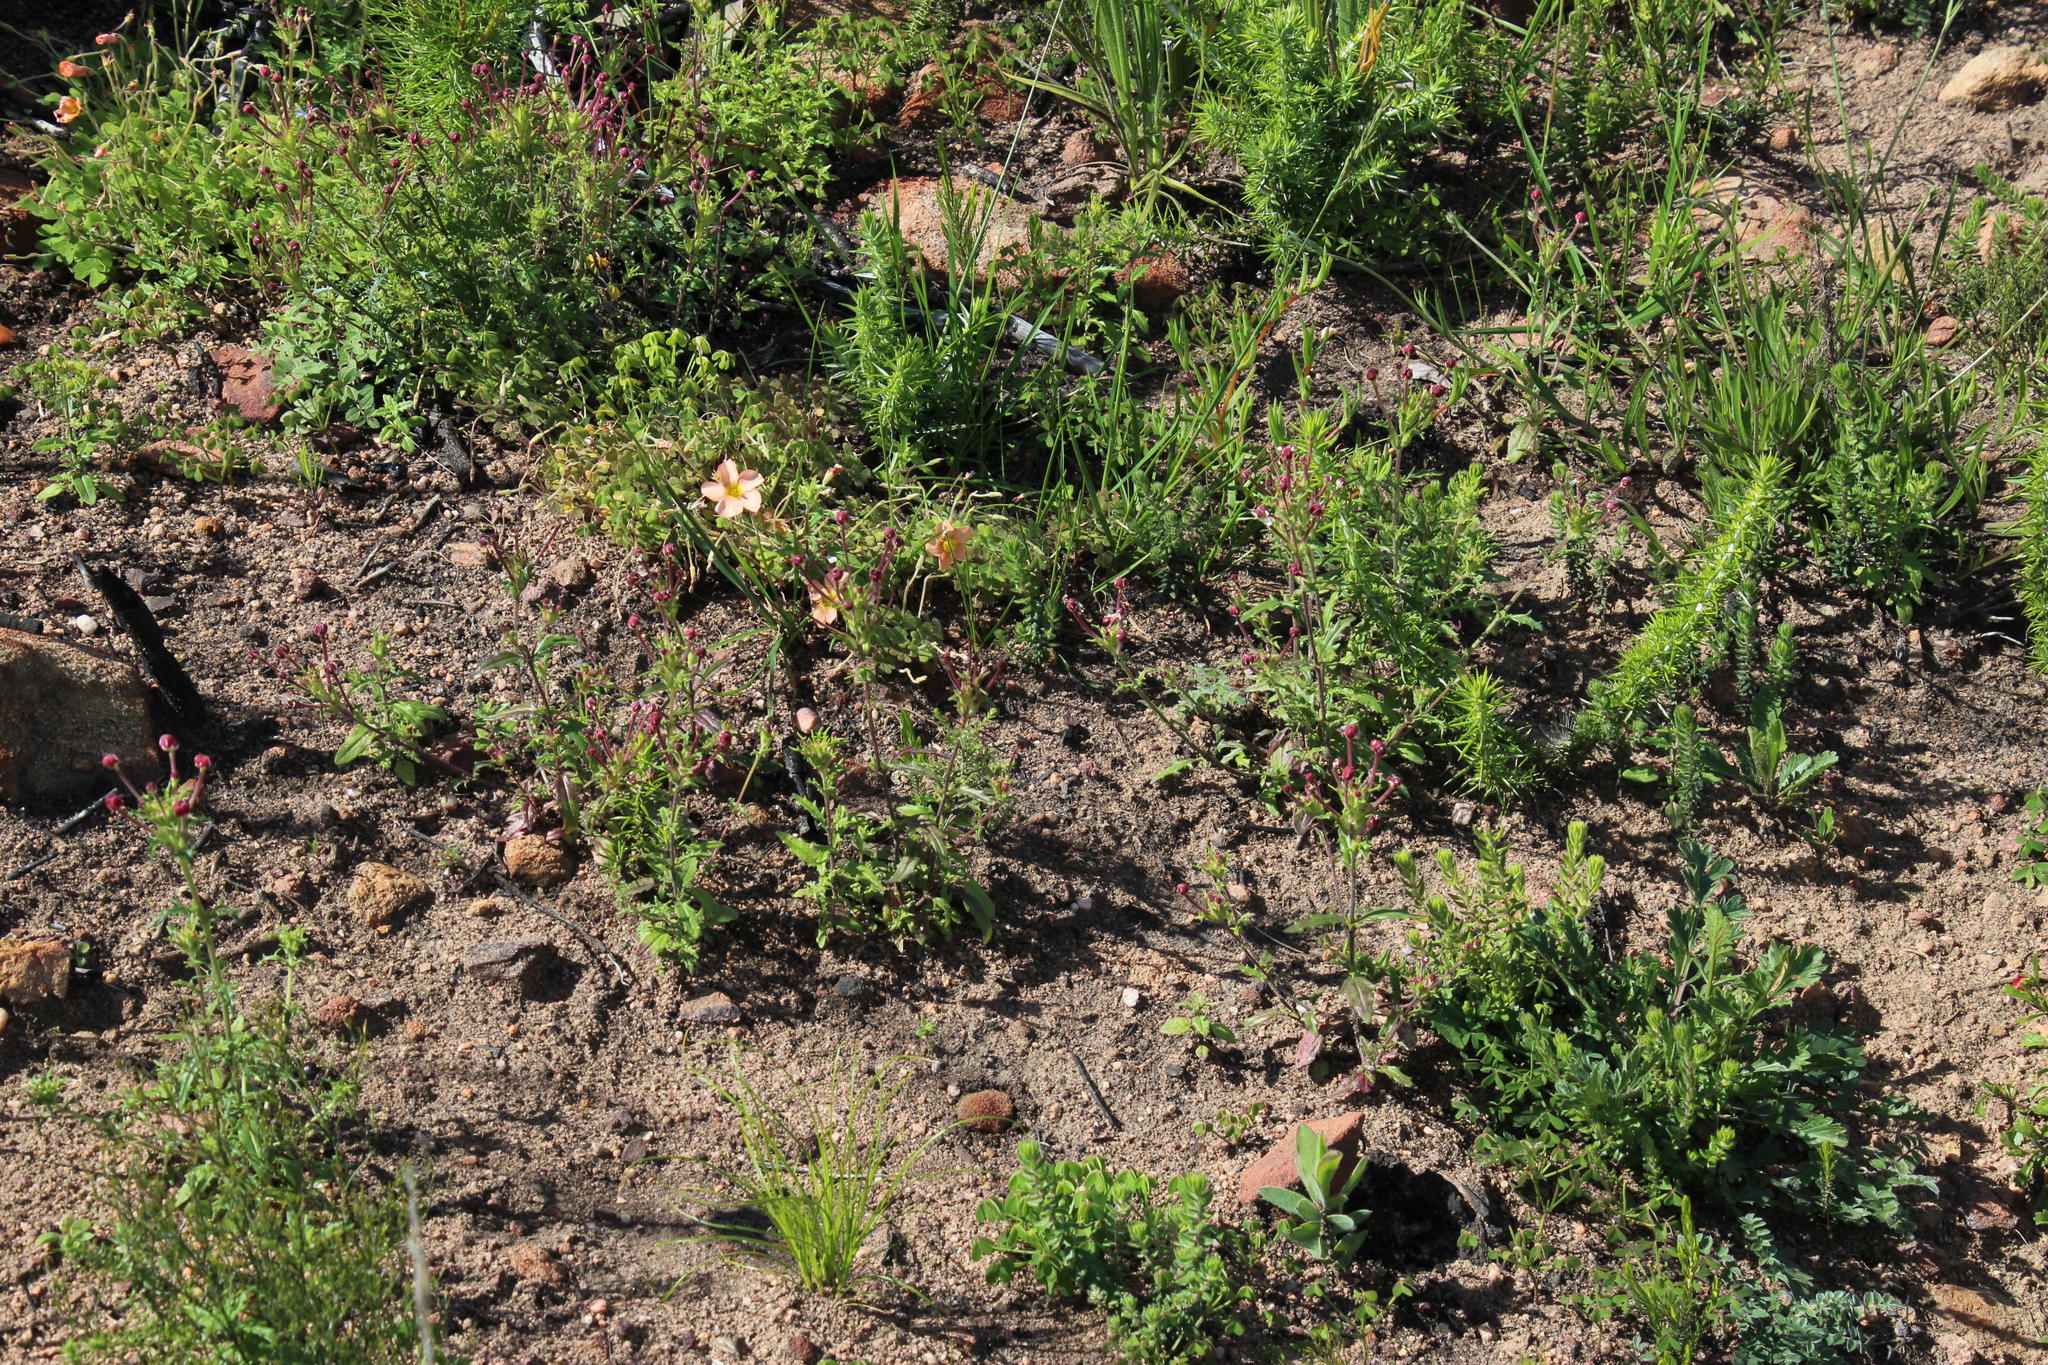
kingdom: Plantae
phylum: Tracheophyta
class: Magnoliopsida
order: Oxalidales
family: Oxalidaceae
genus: Oxalis
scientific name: Oxalis obtusa
